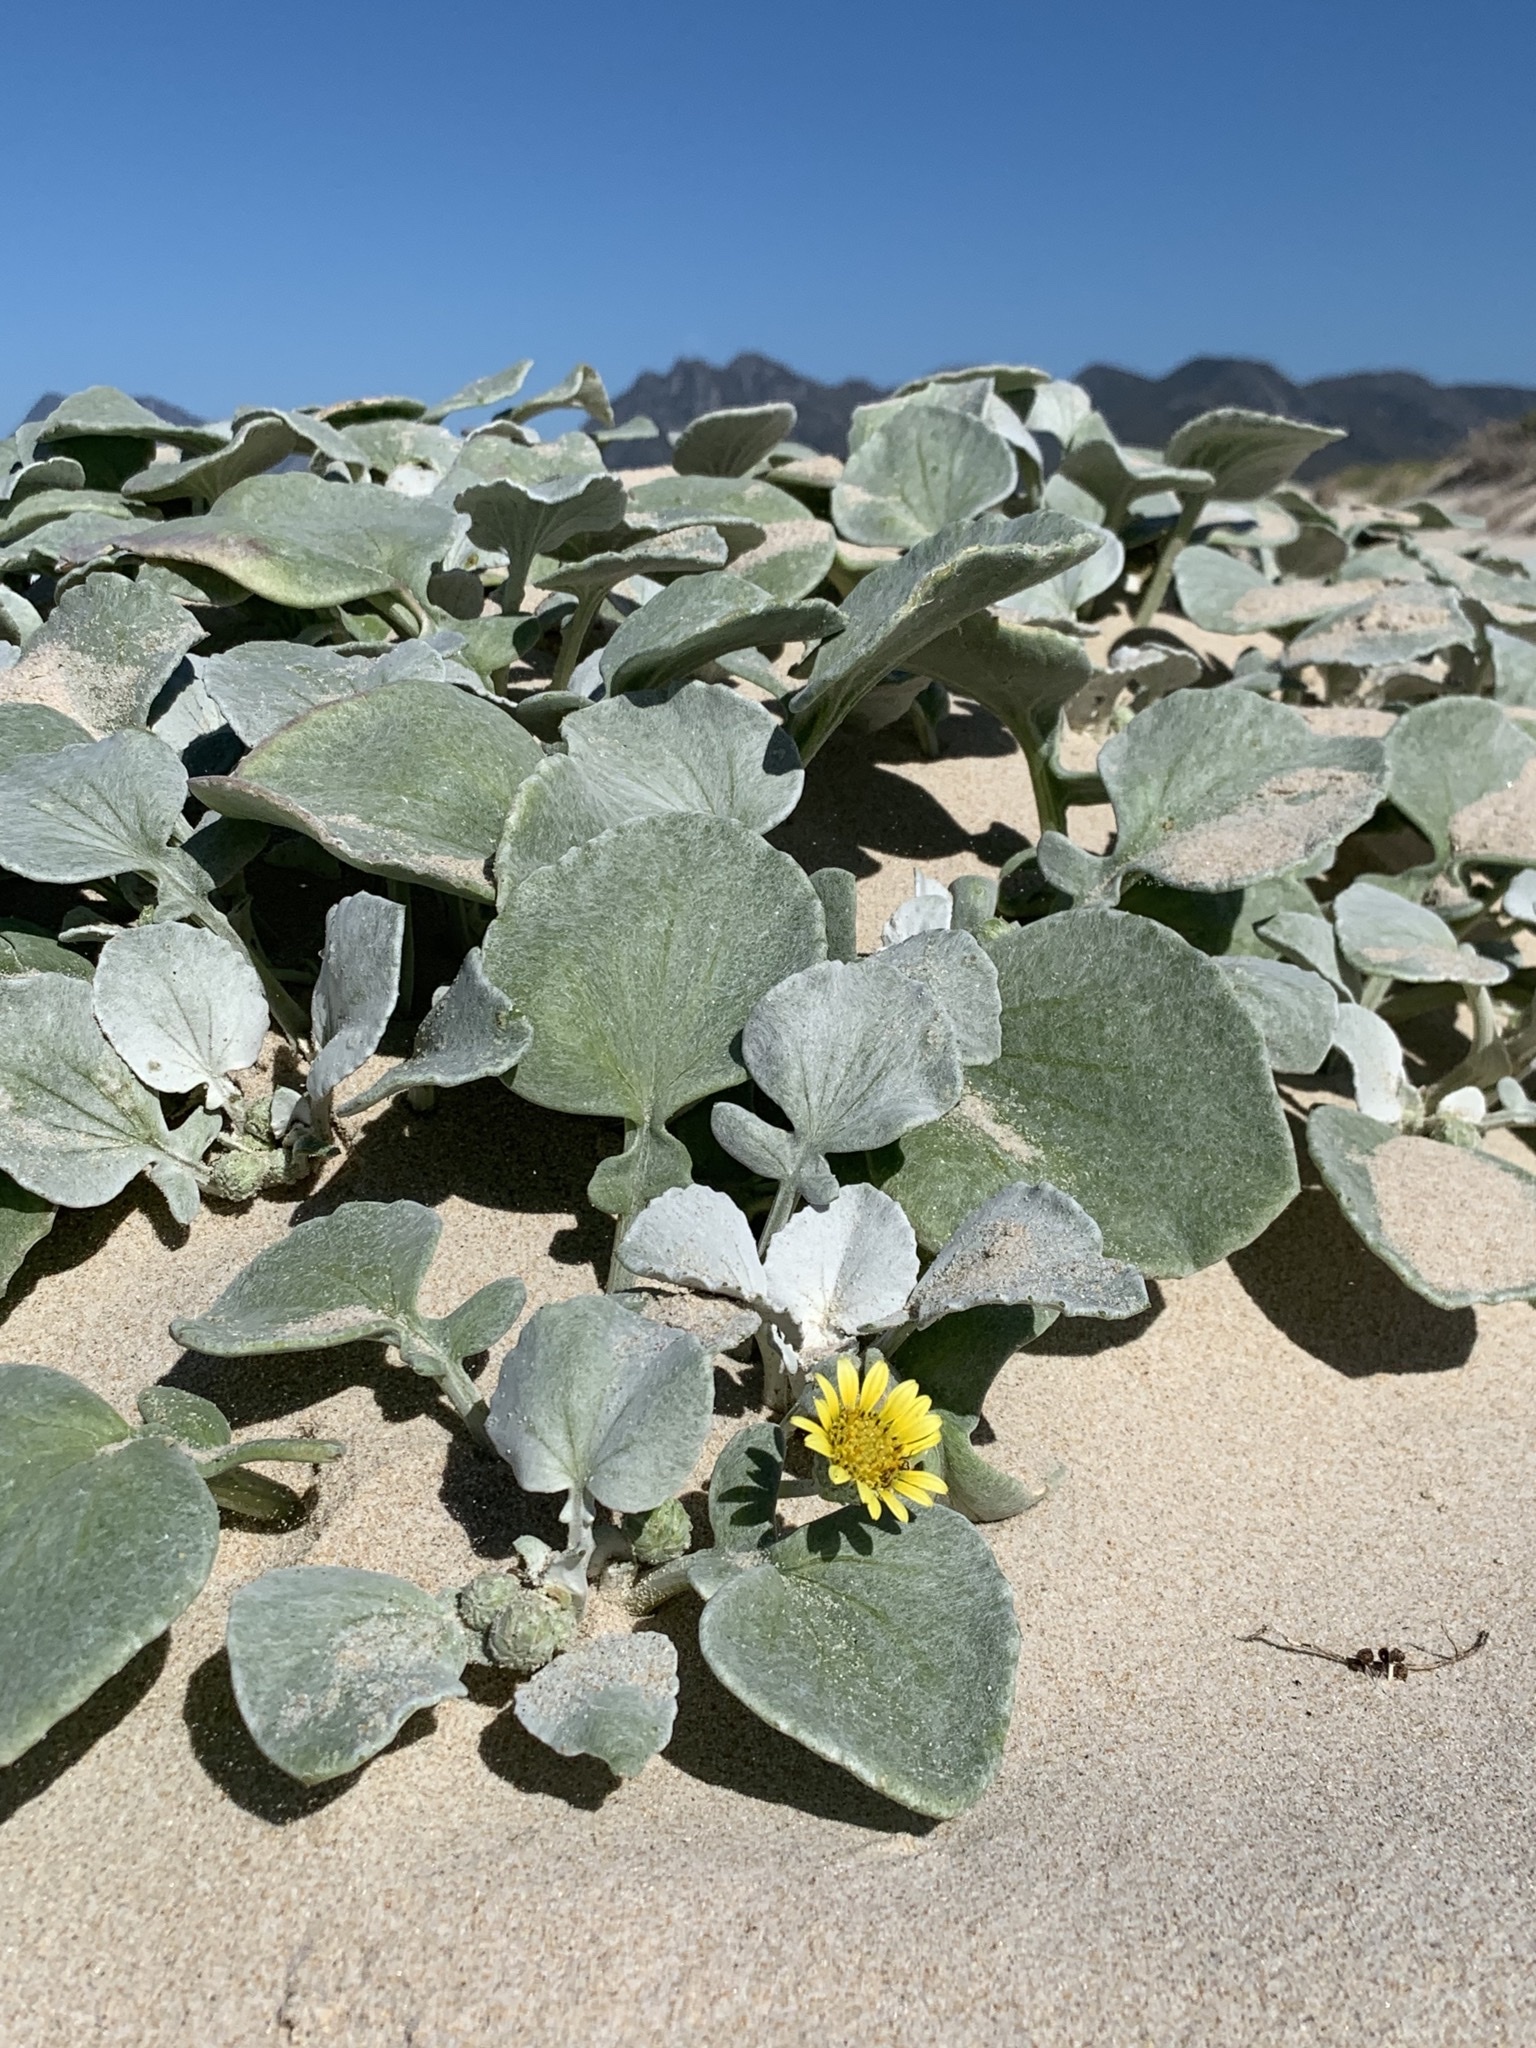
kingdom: Plantae
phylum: Tracheophyta
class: Magnoliopsida
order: Asterales
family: Asteraceae
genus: Arctotheca
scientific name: Arctotheca populifolia
